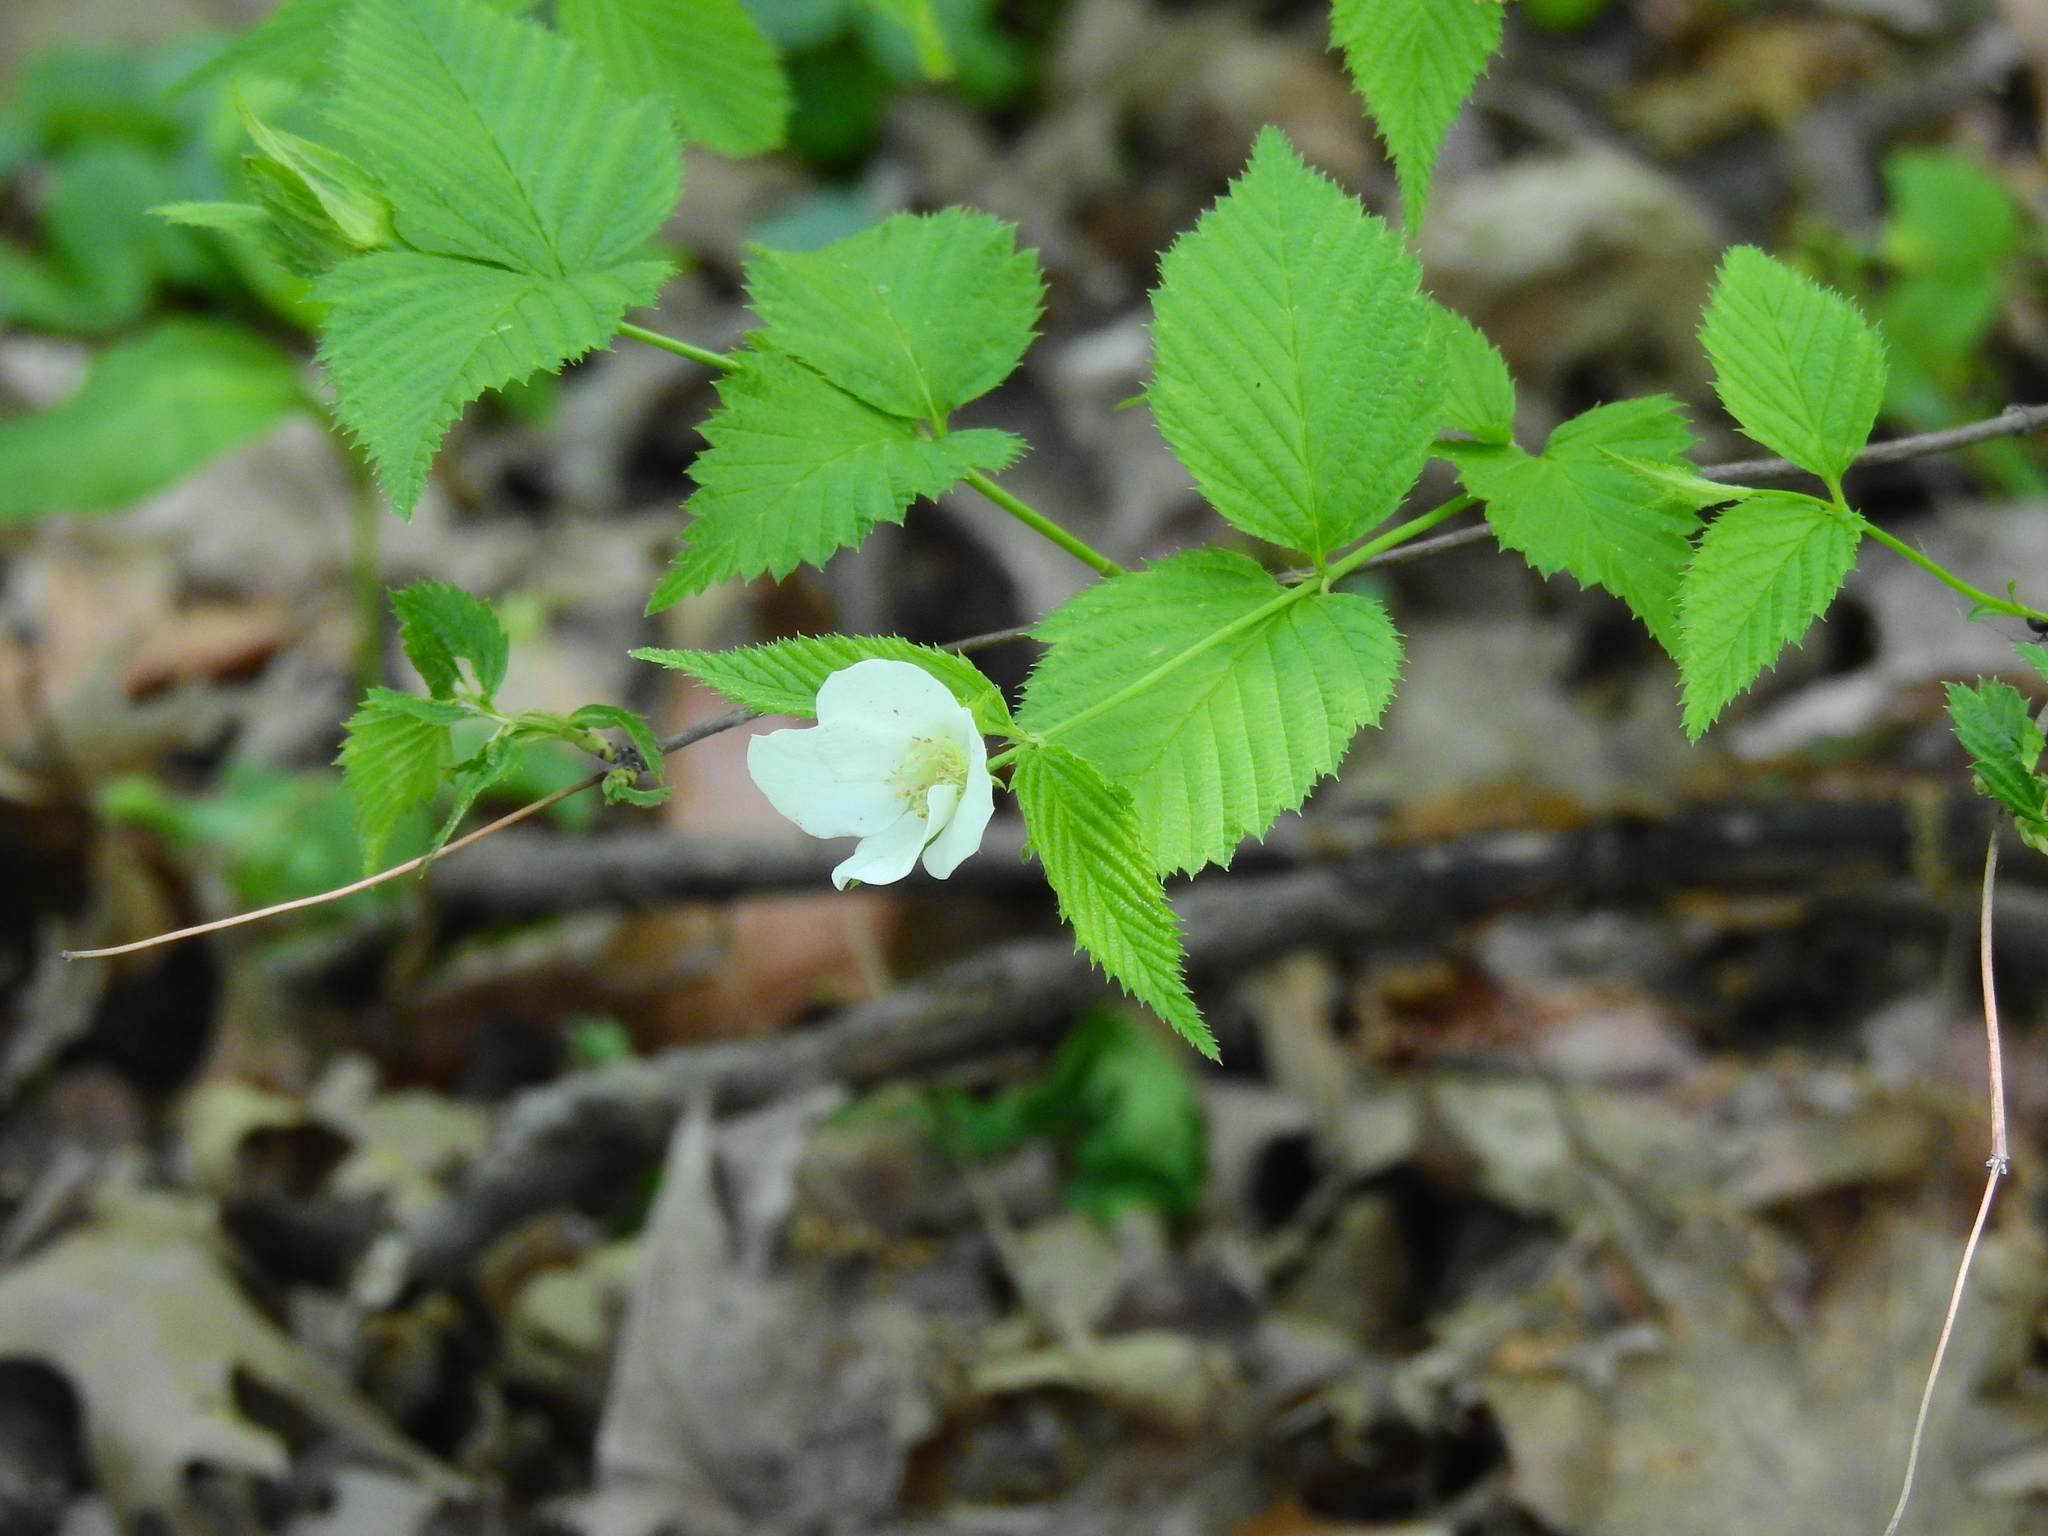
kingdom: Plantae
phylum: Tracheophyta
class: Magnoliopsida
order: Rosales
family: Rosaceae
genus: Rhodotypos
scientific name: Rhodotypos scandens
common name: Jetbead
